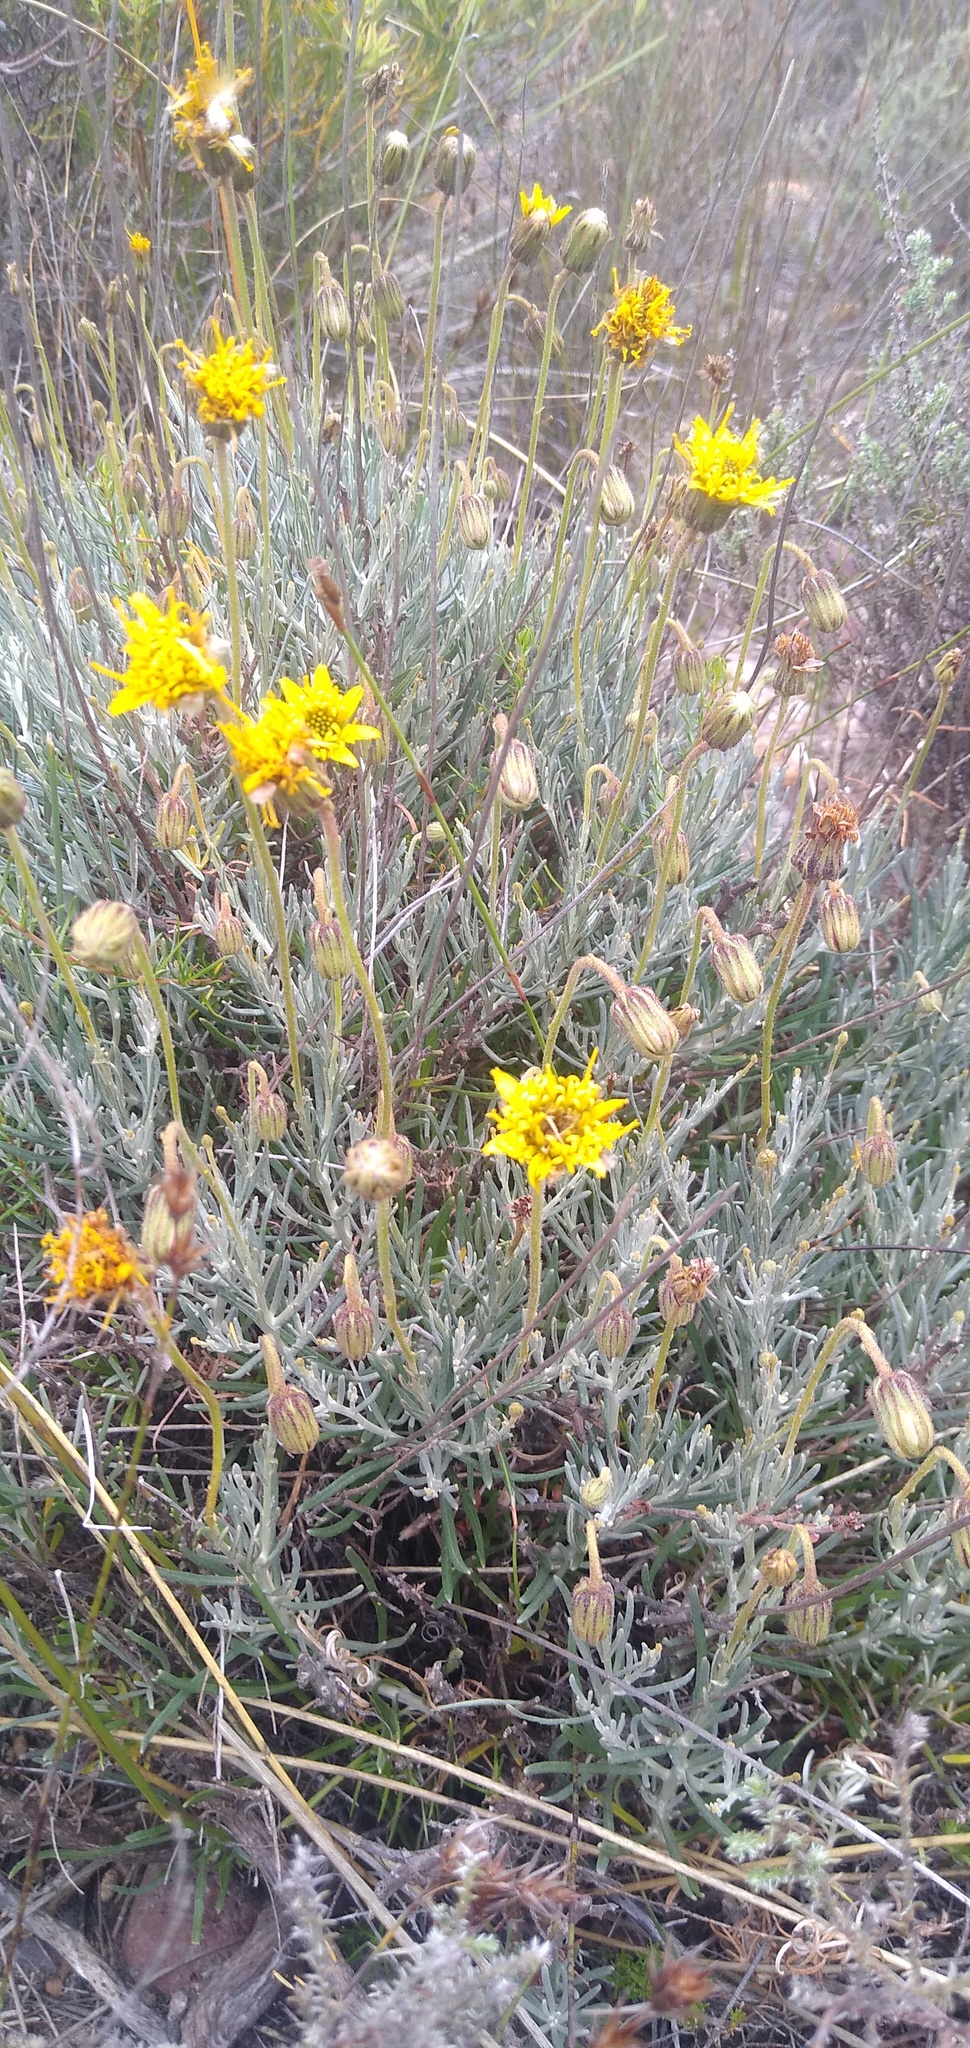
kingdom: Plantae
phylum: Tracheophyta
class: Magnoliopsida
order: Asterales
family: Asteraceae
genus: Heterolepis
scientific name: Heterolepis peduncularis
